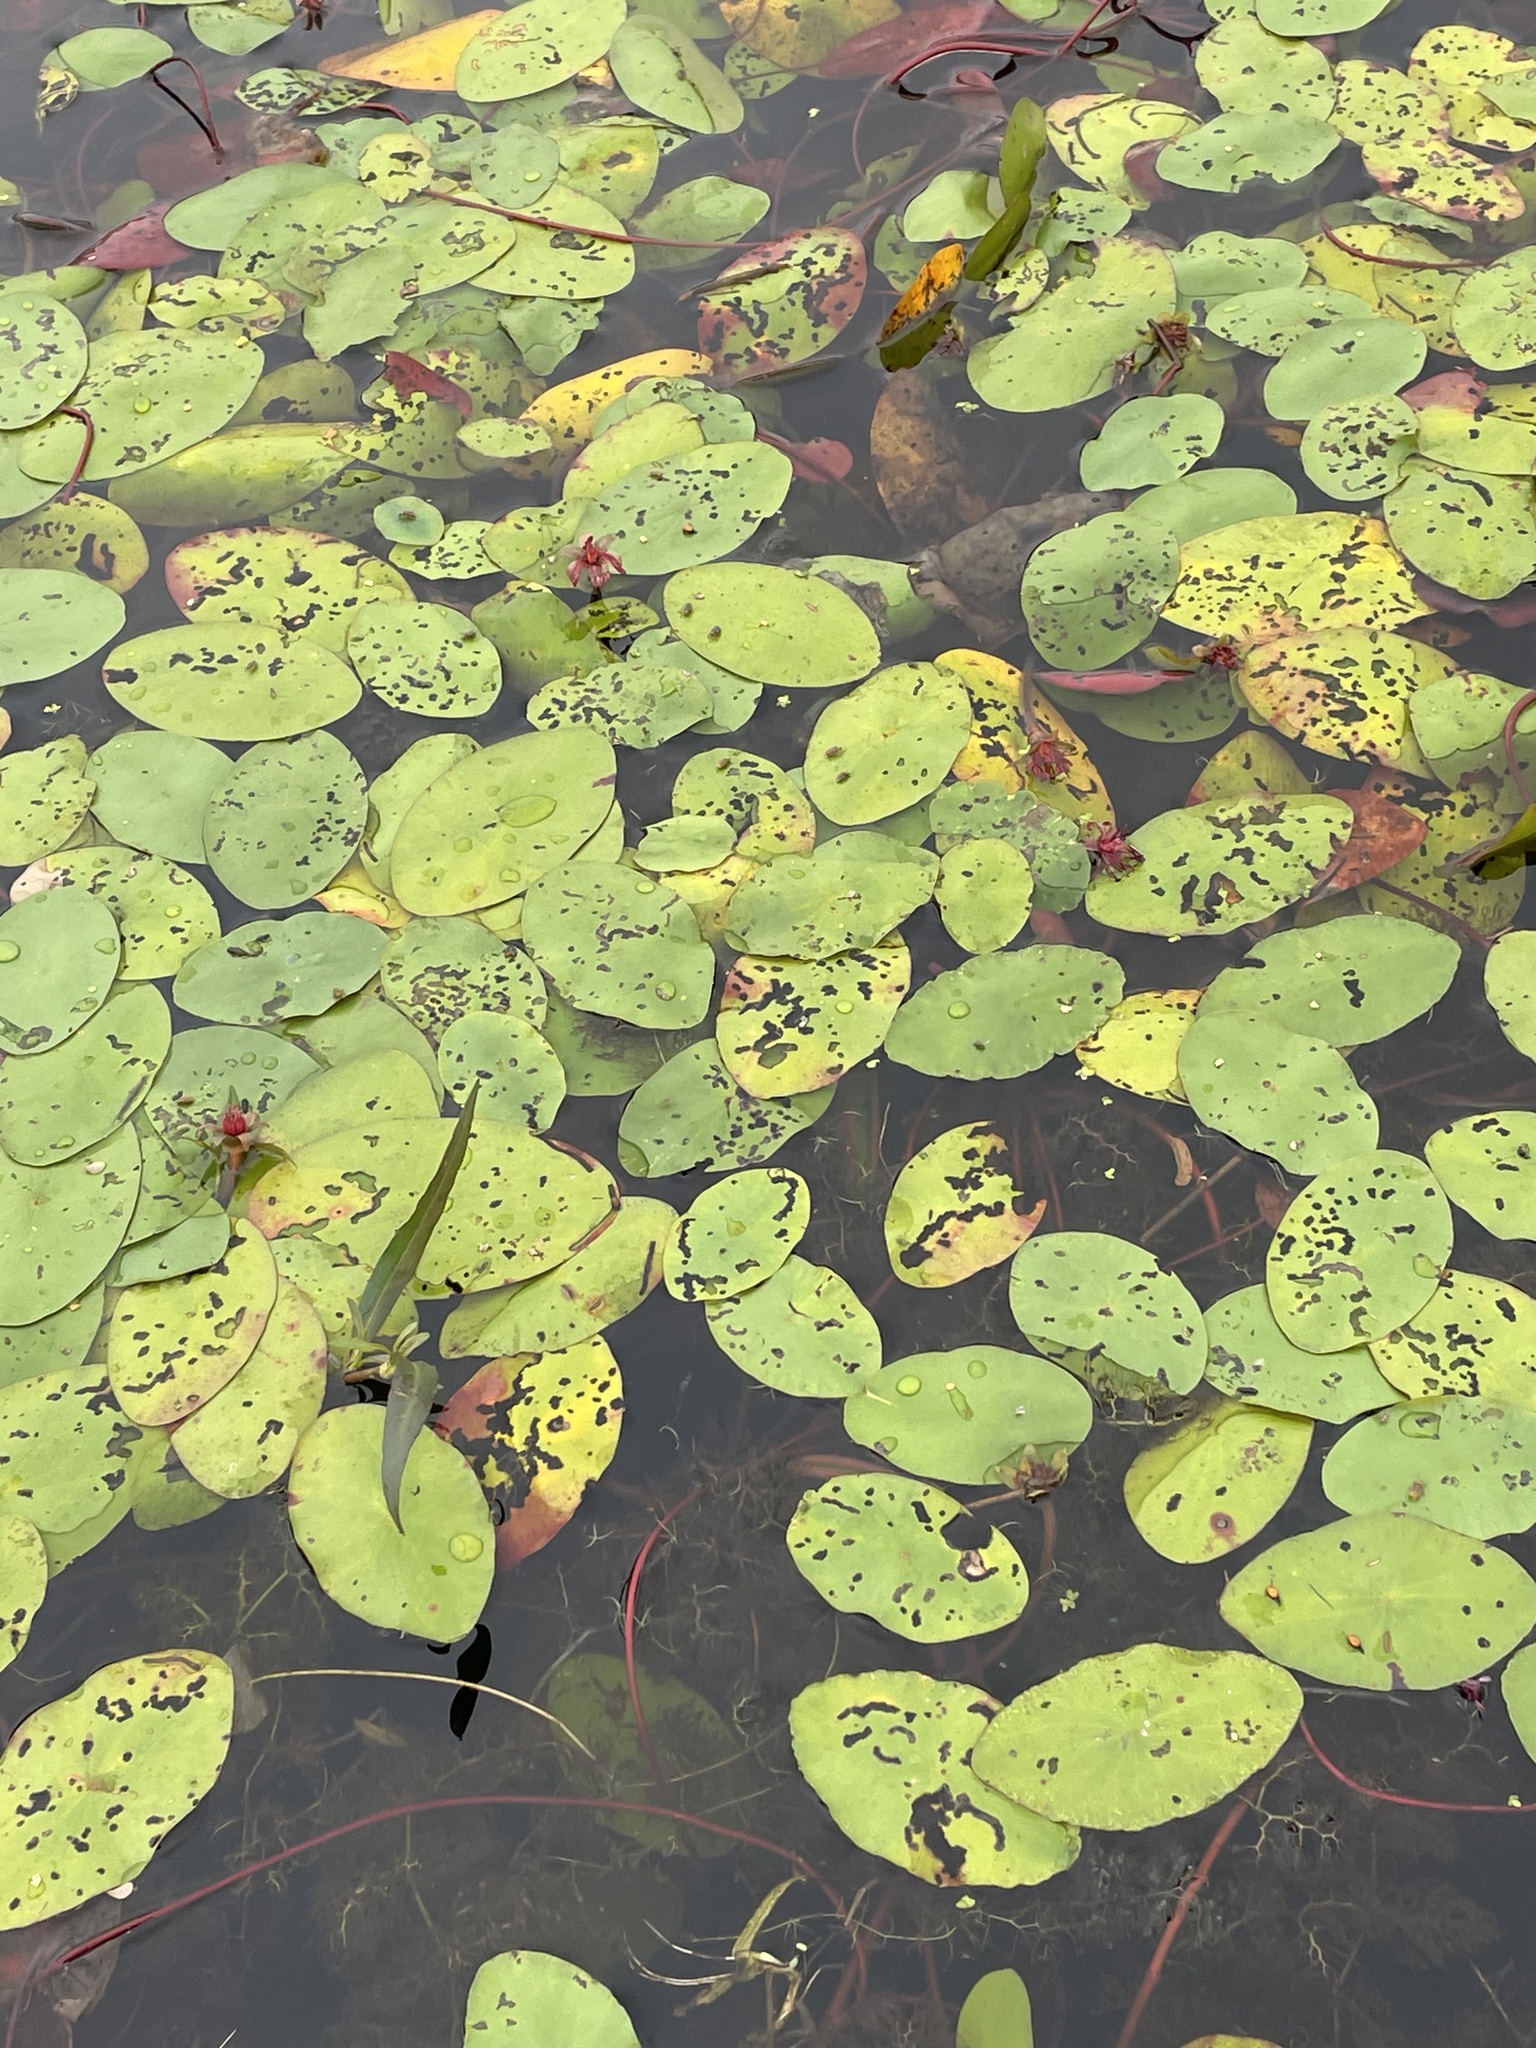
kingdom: Plantae
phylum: Tracheophyta
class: Magnoliopsida
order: Nymphaeales
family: Cabombaceae
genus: Brasenia
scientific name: Brasenia schreberi
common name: Water-shield
